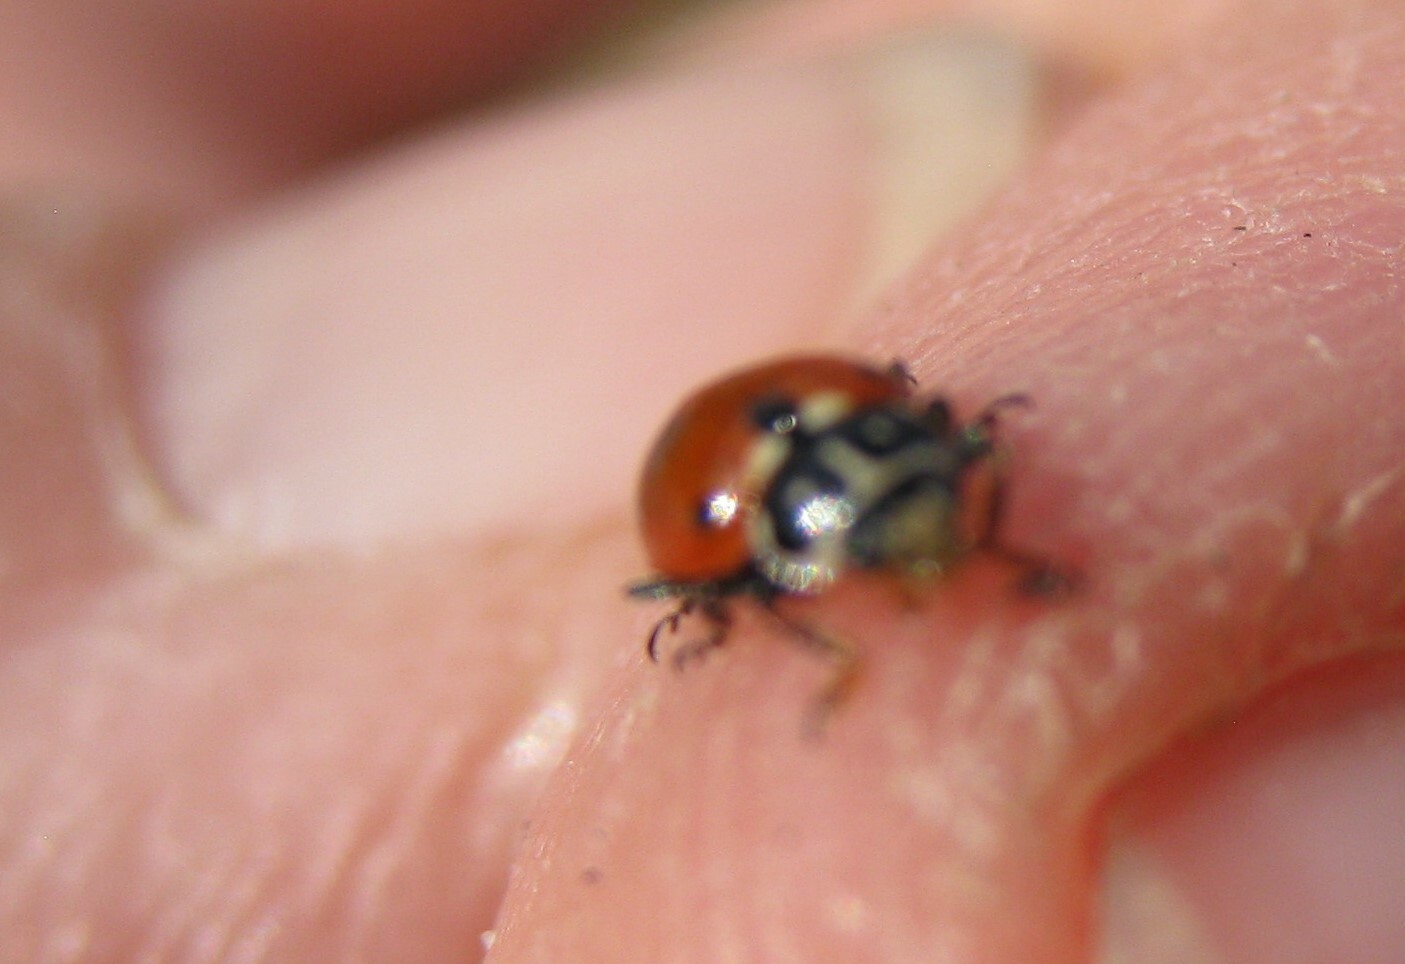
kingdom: Animalia
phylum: Arthropoda
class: Insecta
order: Coleoptera
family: Coccinellidae
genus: Hippodamia
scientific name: Hippodamia variegata
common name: Ladybird beetle
